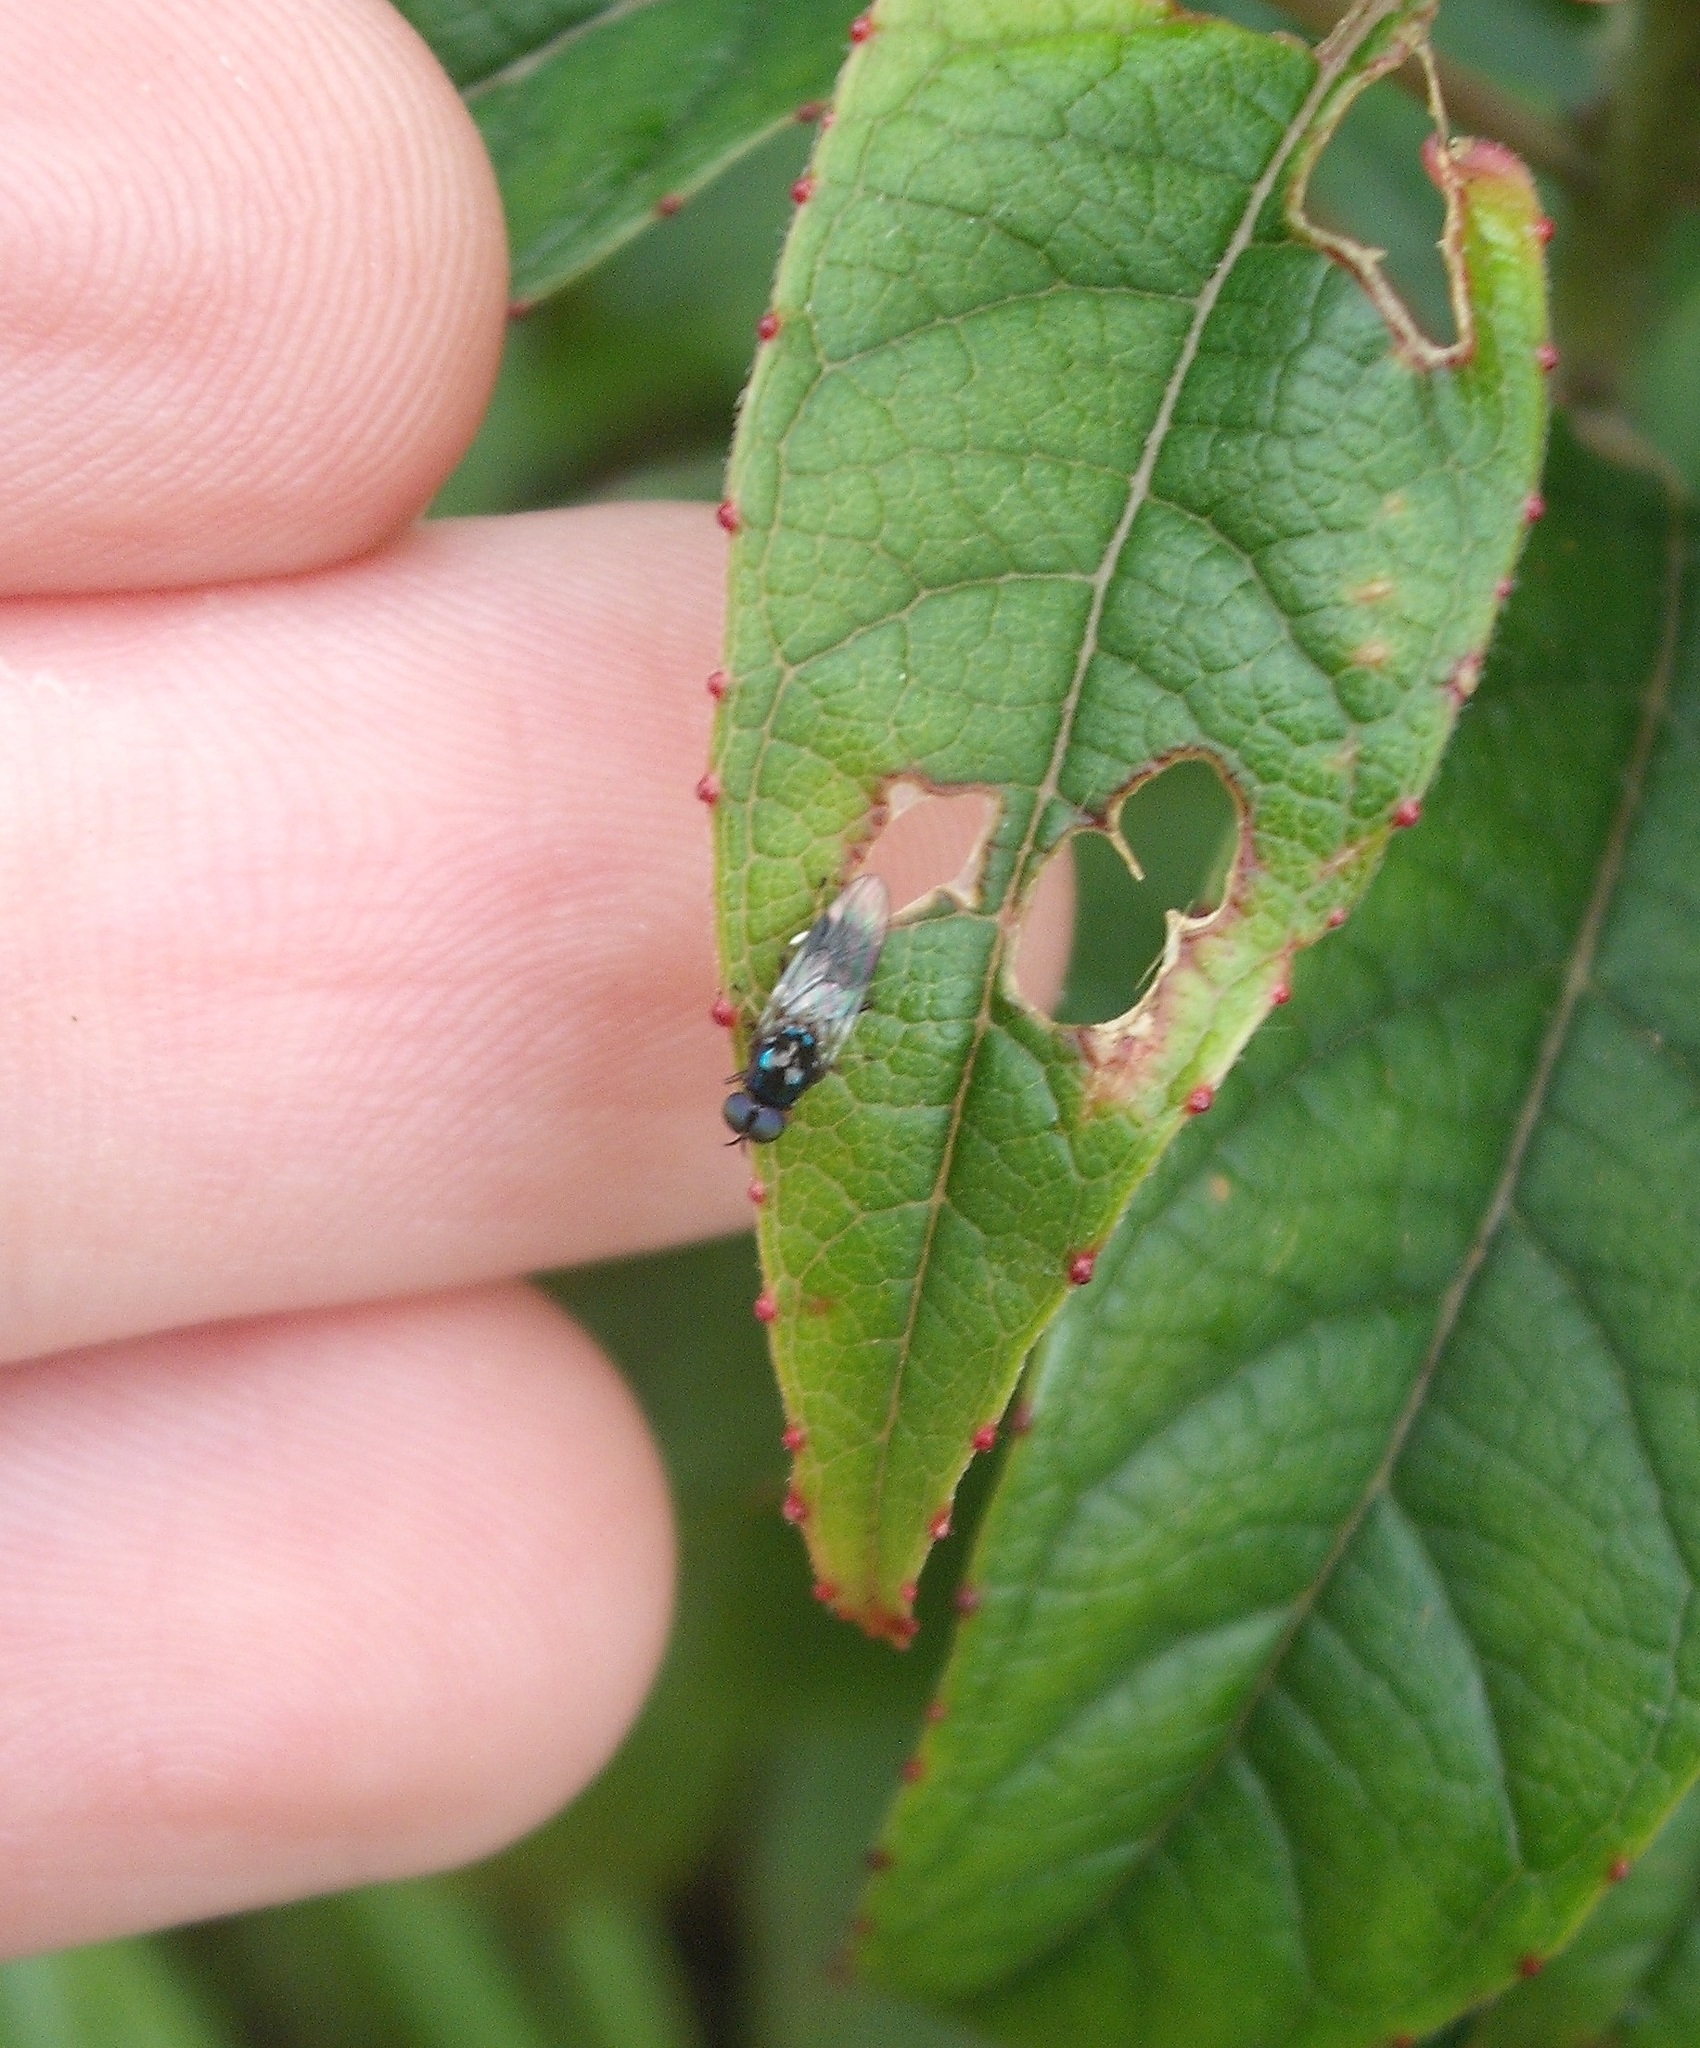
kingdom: Animalia
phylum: Arthropoda
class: Insecta
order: Diptera
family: Stratiomyidae
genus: Zealandoberis
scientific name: Zealandoberis lacuans
